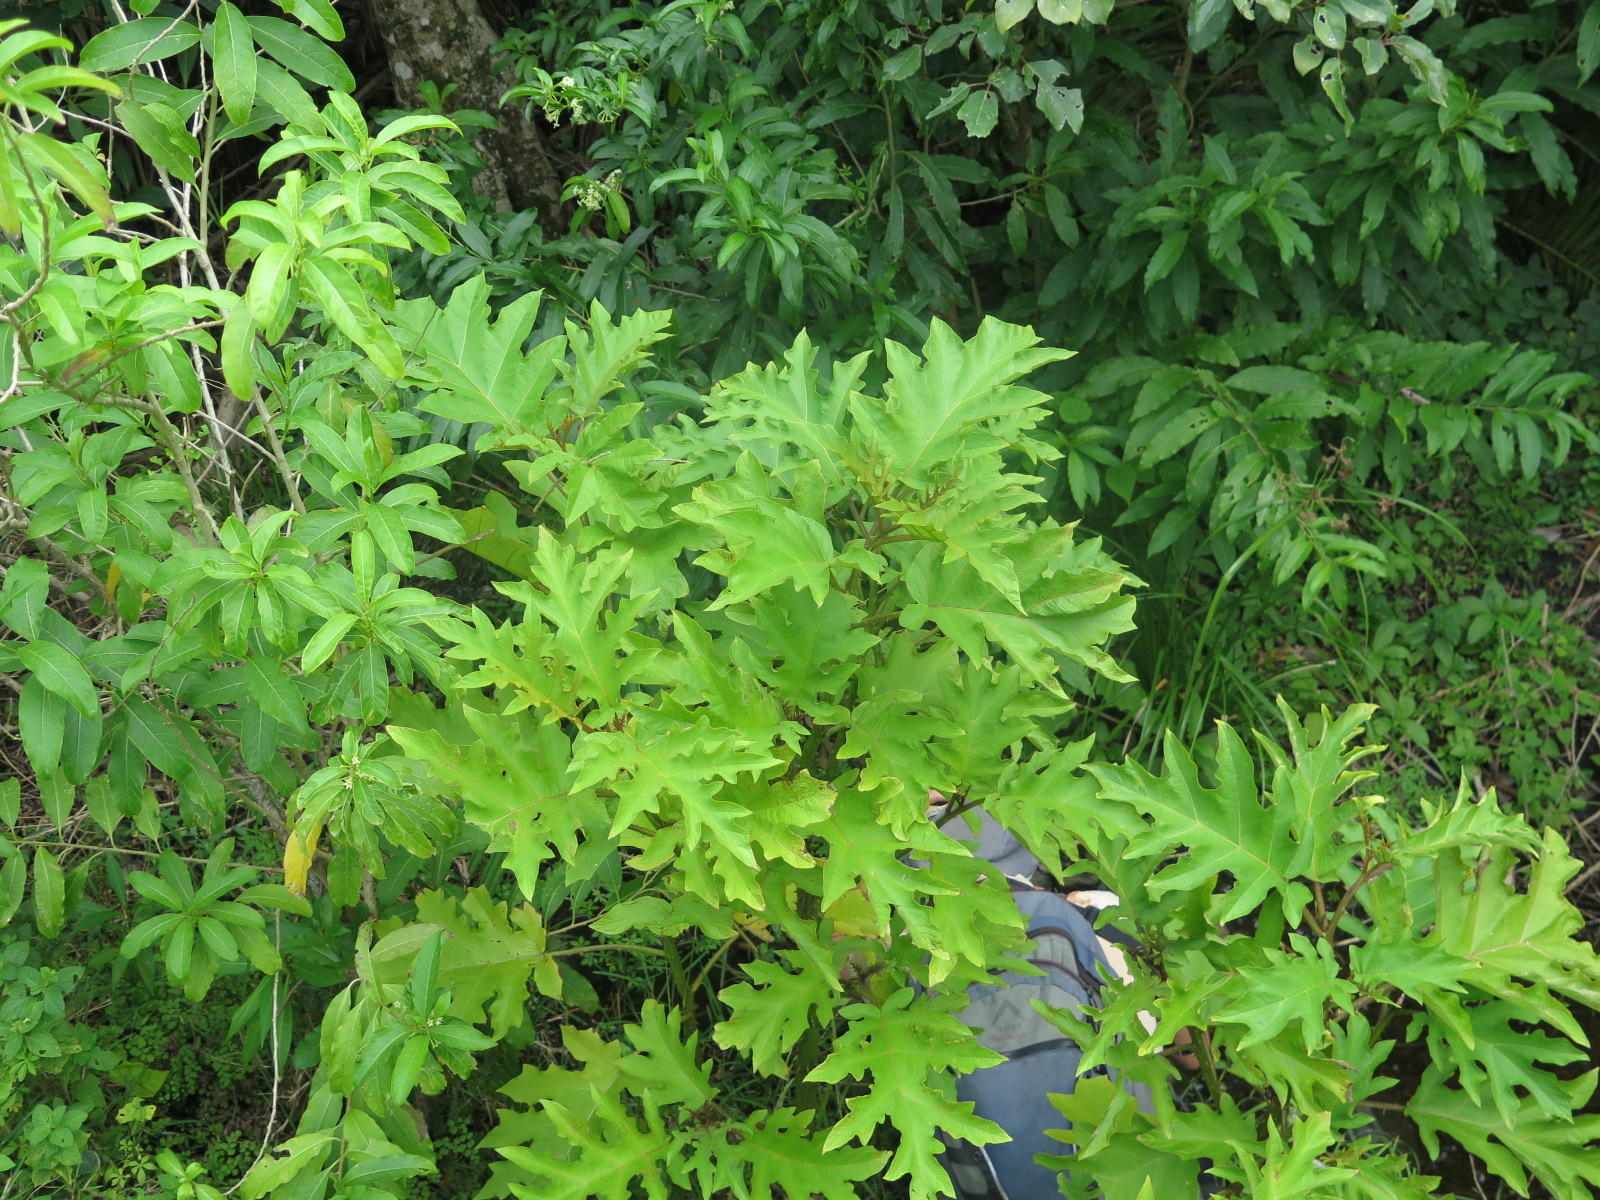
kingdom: Plantae
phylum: Tracheophyta
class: Magnoliopsida
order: Solanales
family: Solanaceae
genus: Solanum
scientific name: Solanum chrysotrichum
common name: Nightshade
